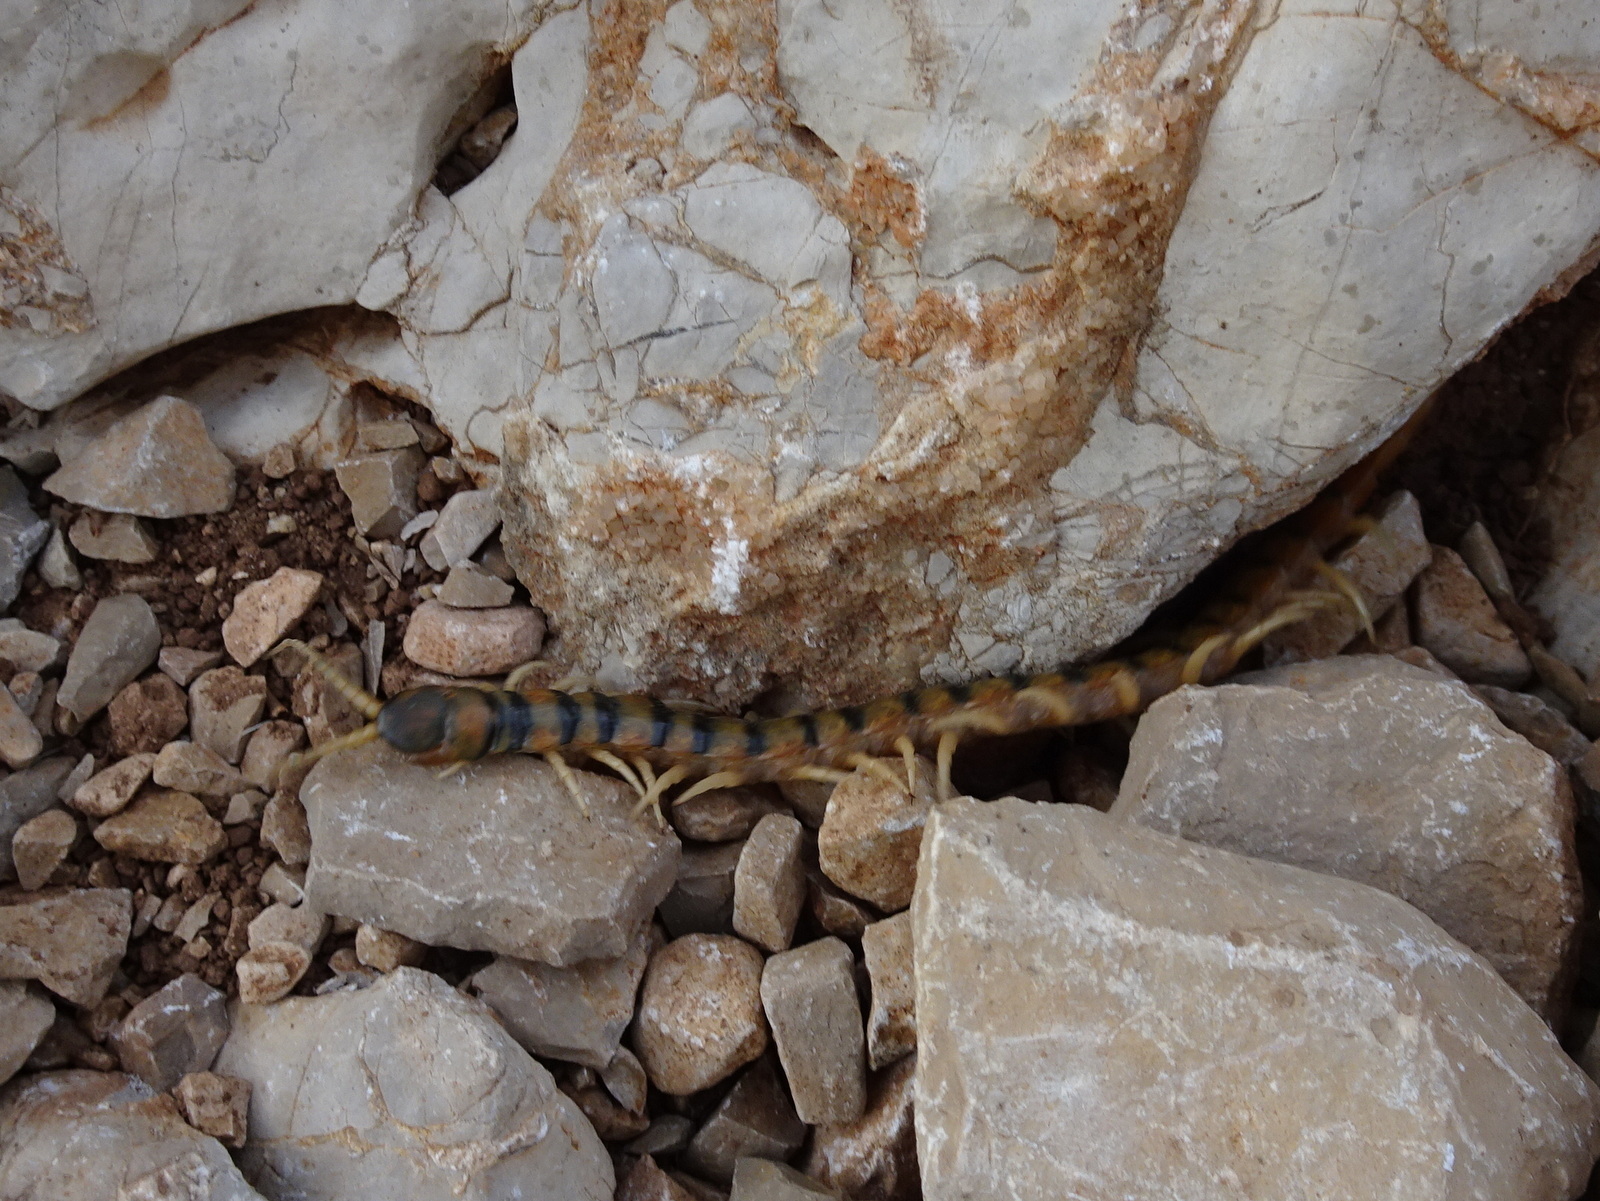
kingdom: Animalia
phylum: Arthropoda
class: Chilopoda
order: Scolopendromorpha
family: Scolopendridae
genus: Scolopendra
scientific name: Scolopendra cingulata
